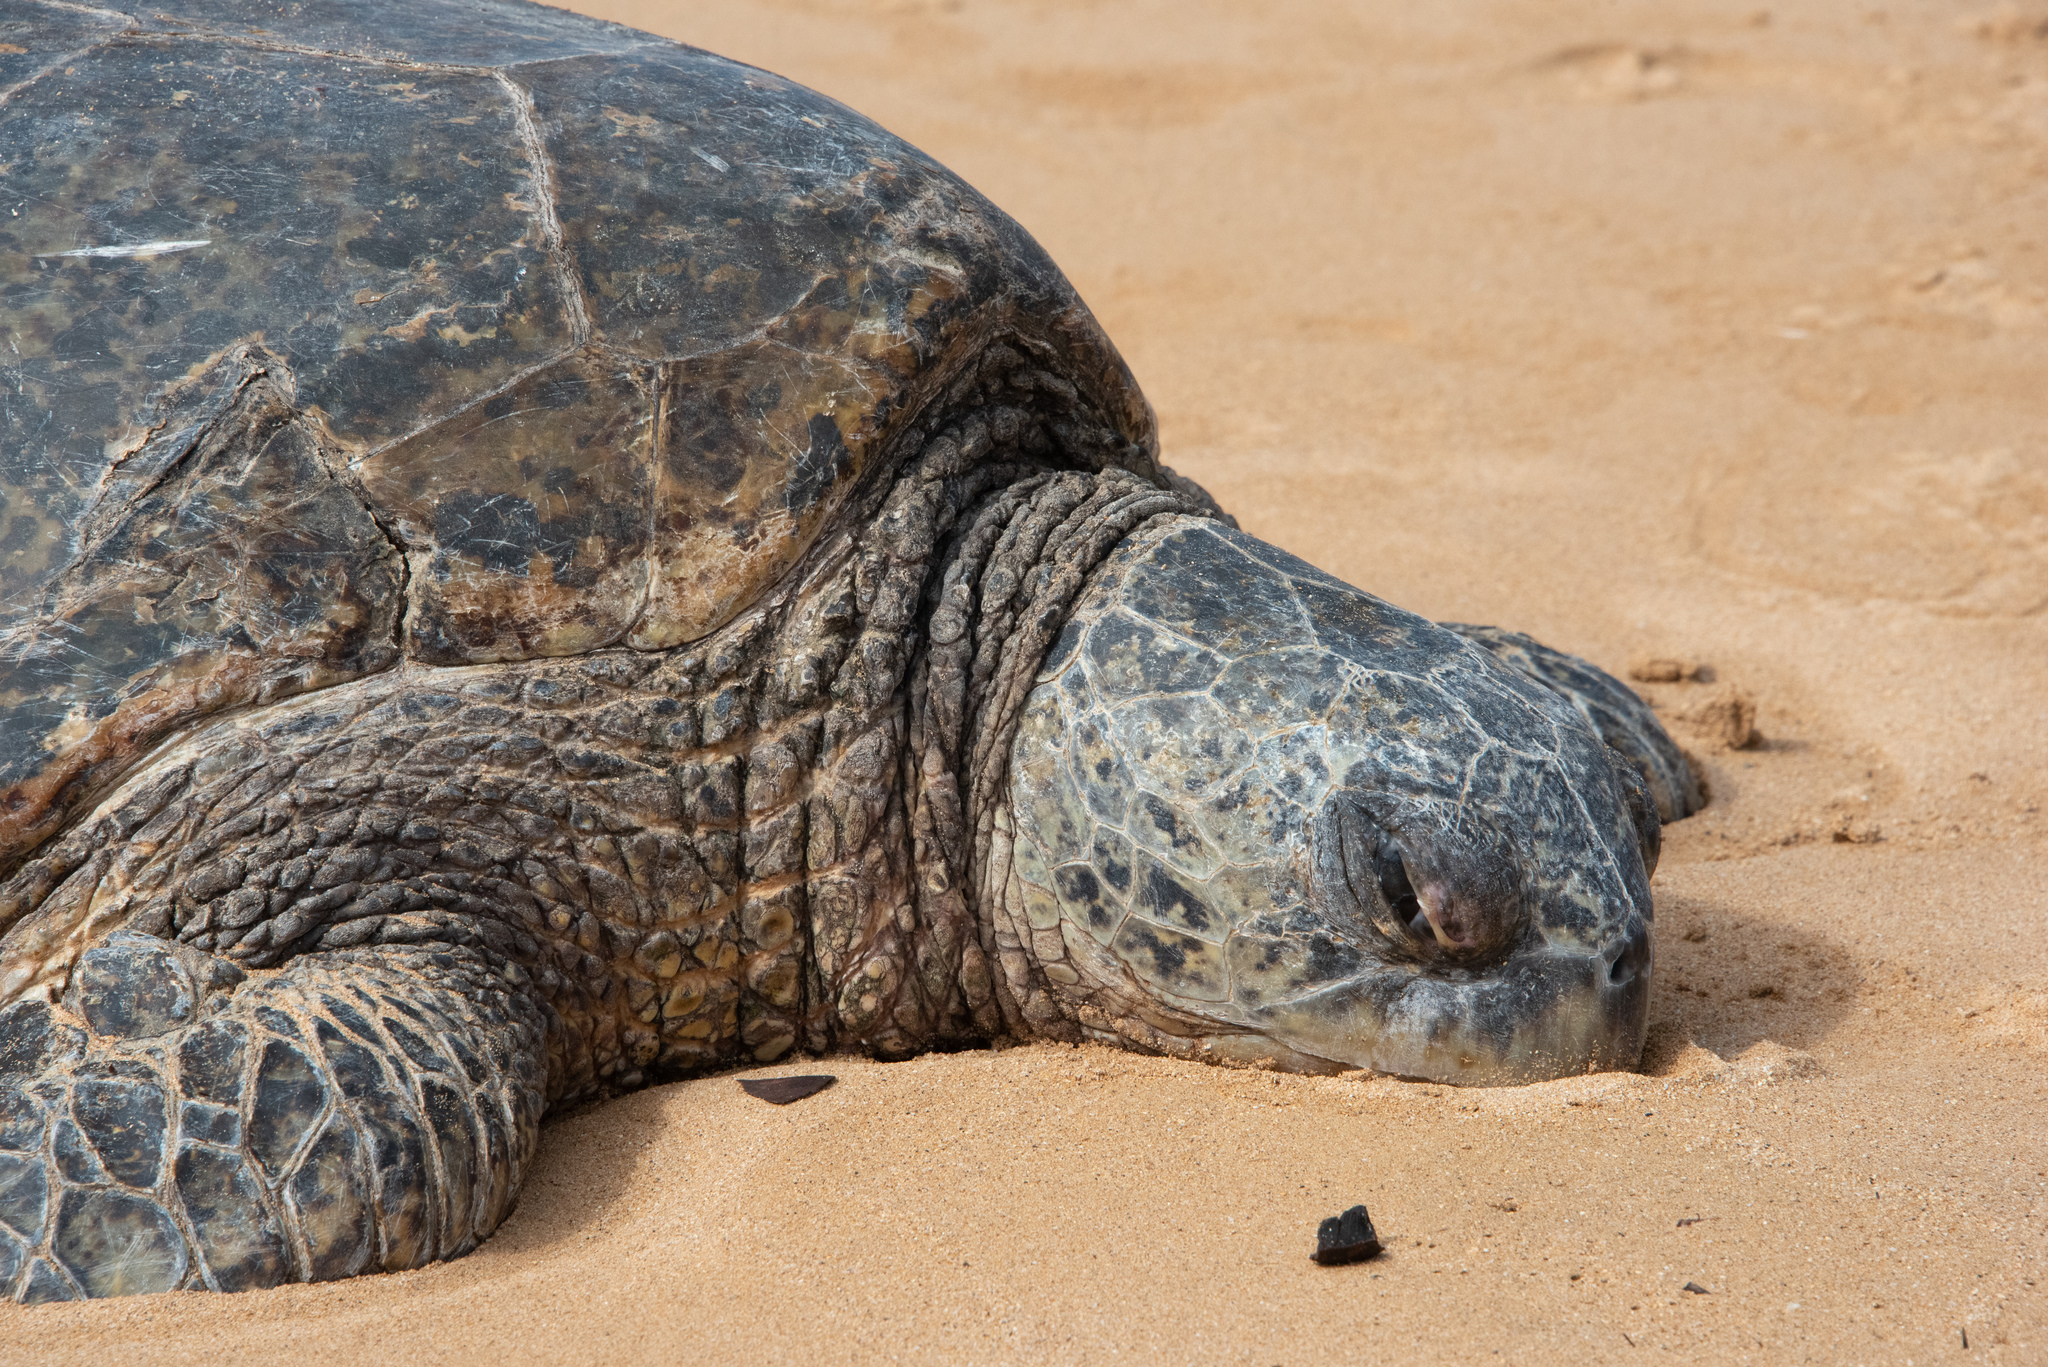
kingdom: Animalia
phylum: Chordata
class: Testudines
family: Cheloniidae
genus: Chelonia
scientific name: Chelonia mydas
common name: Green turtle
